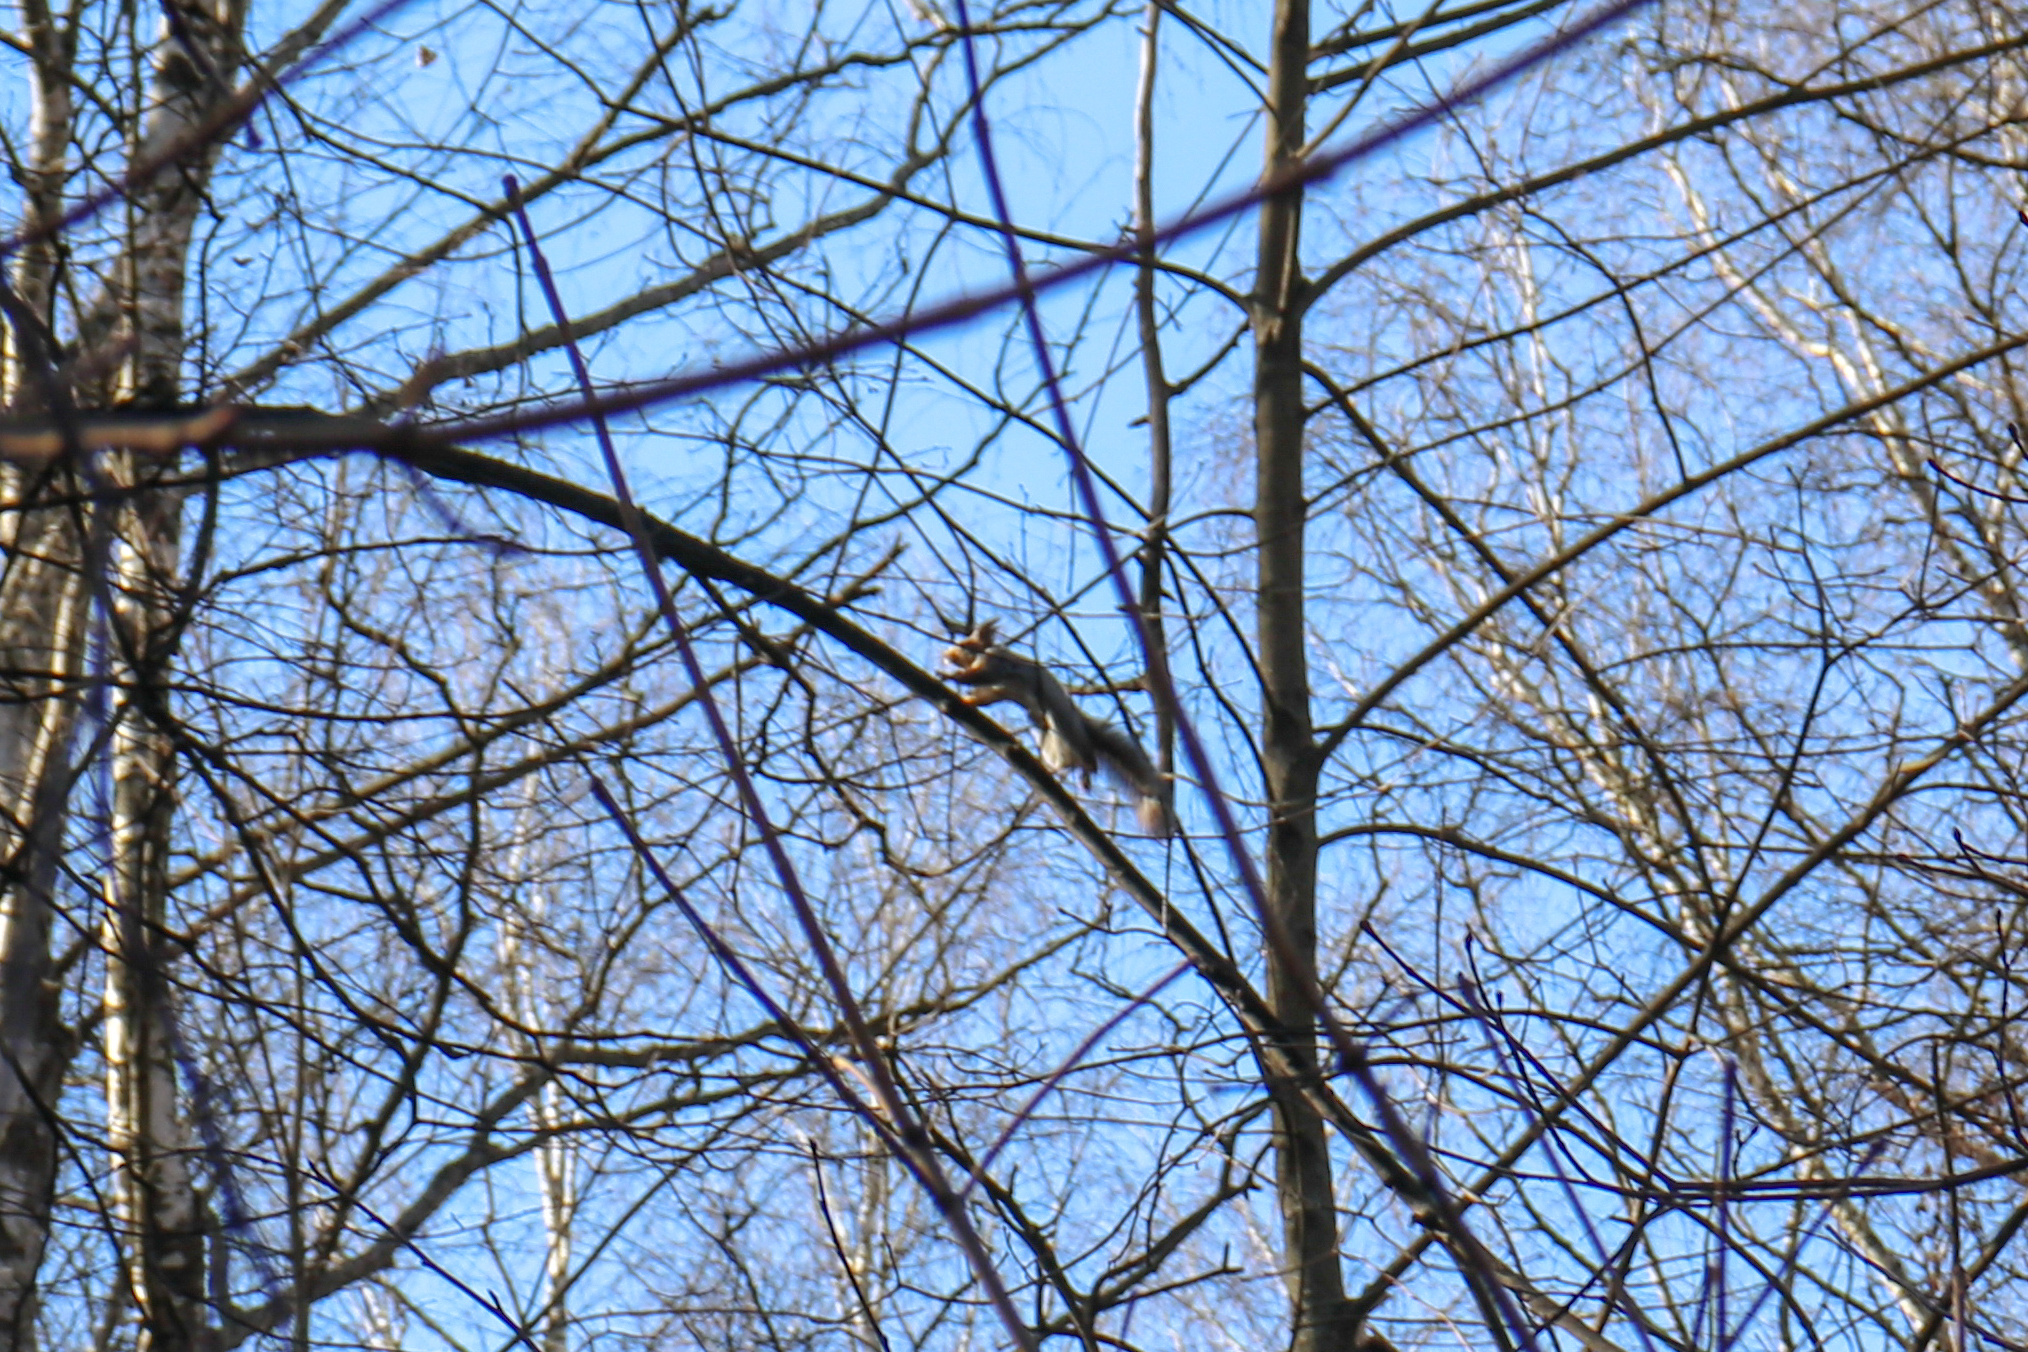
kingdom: Animalia
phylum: Chordata
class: Mammalia
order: Rodentia
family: Sciuridae
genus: Sciurus
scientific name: Sciurus vulgaris
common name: Eurasian red squirrel
